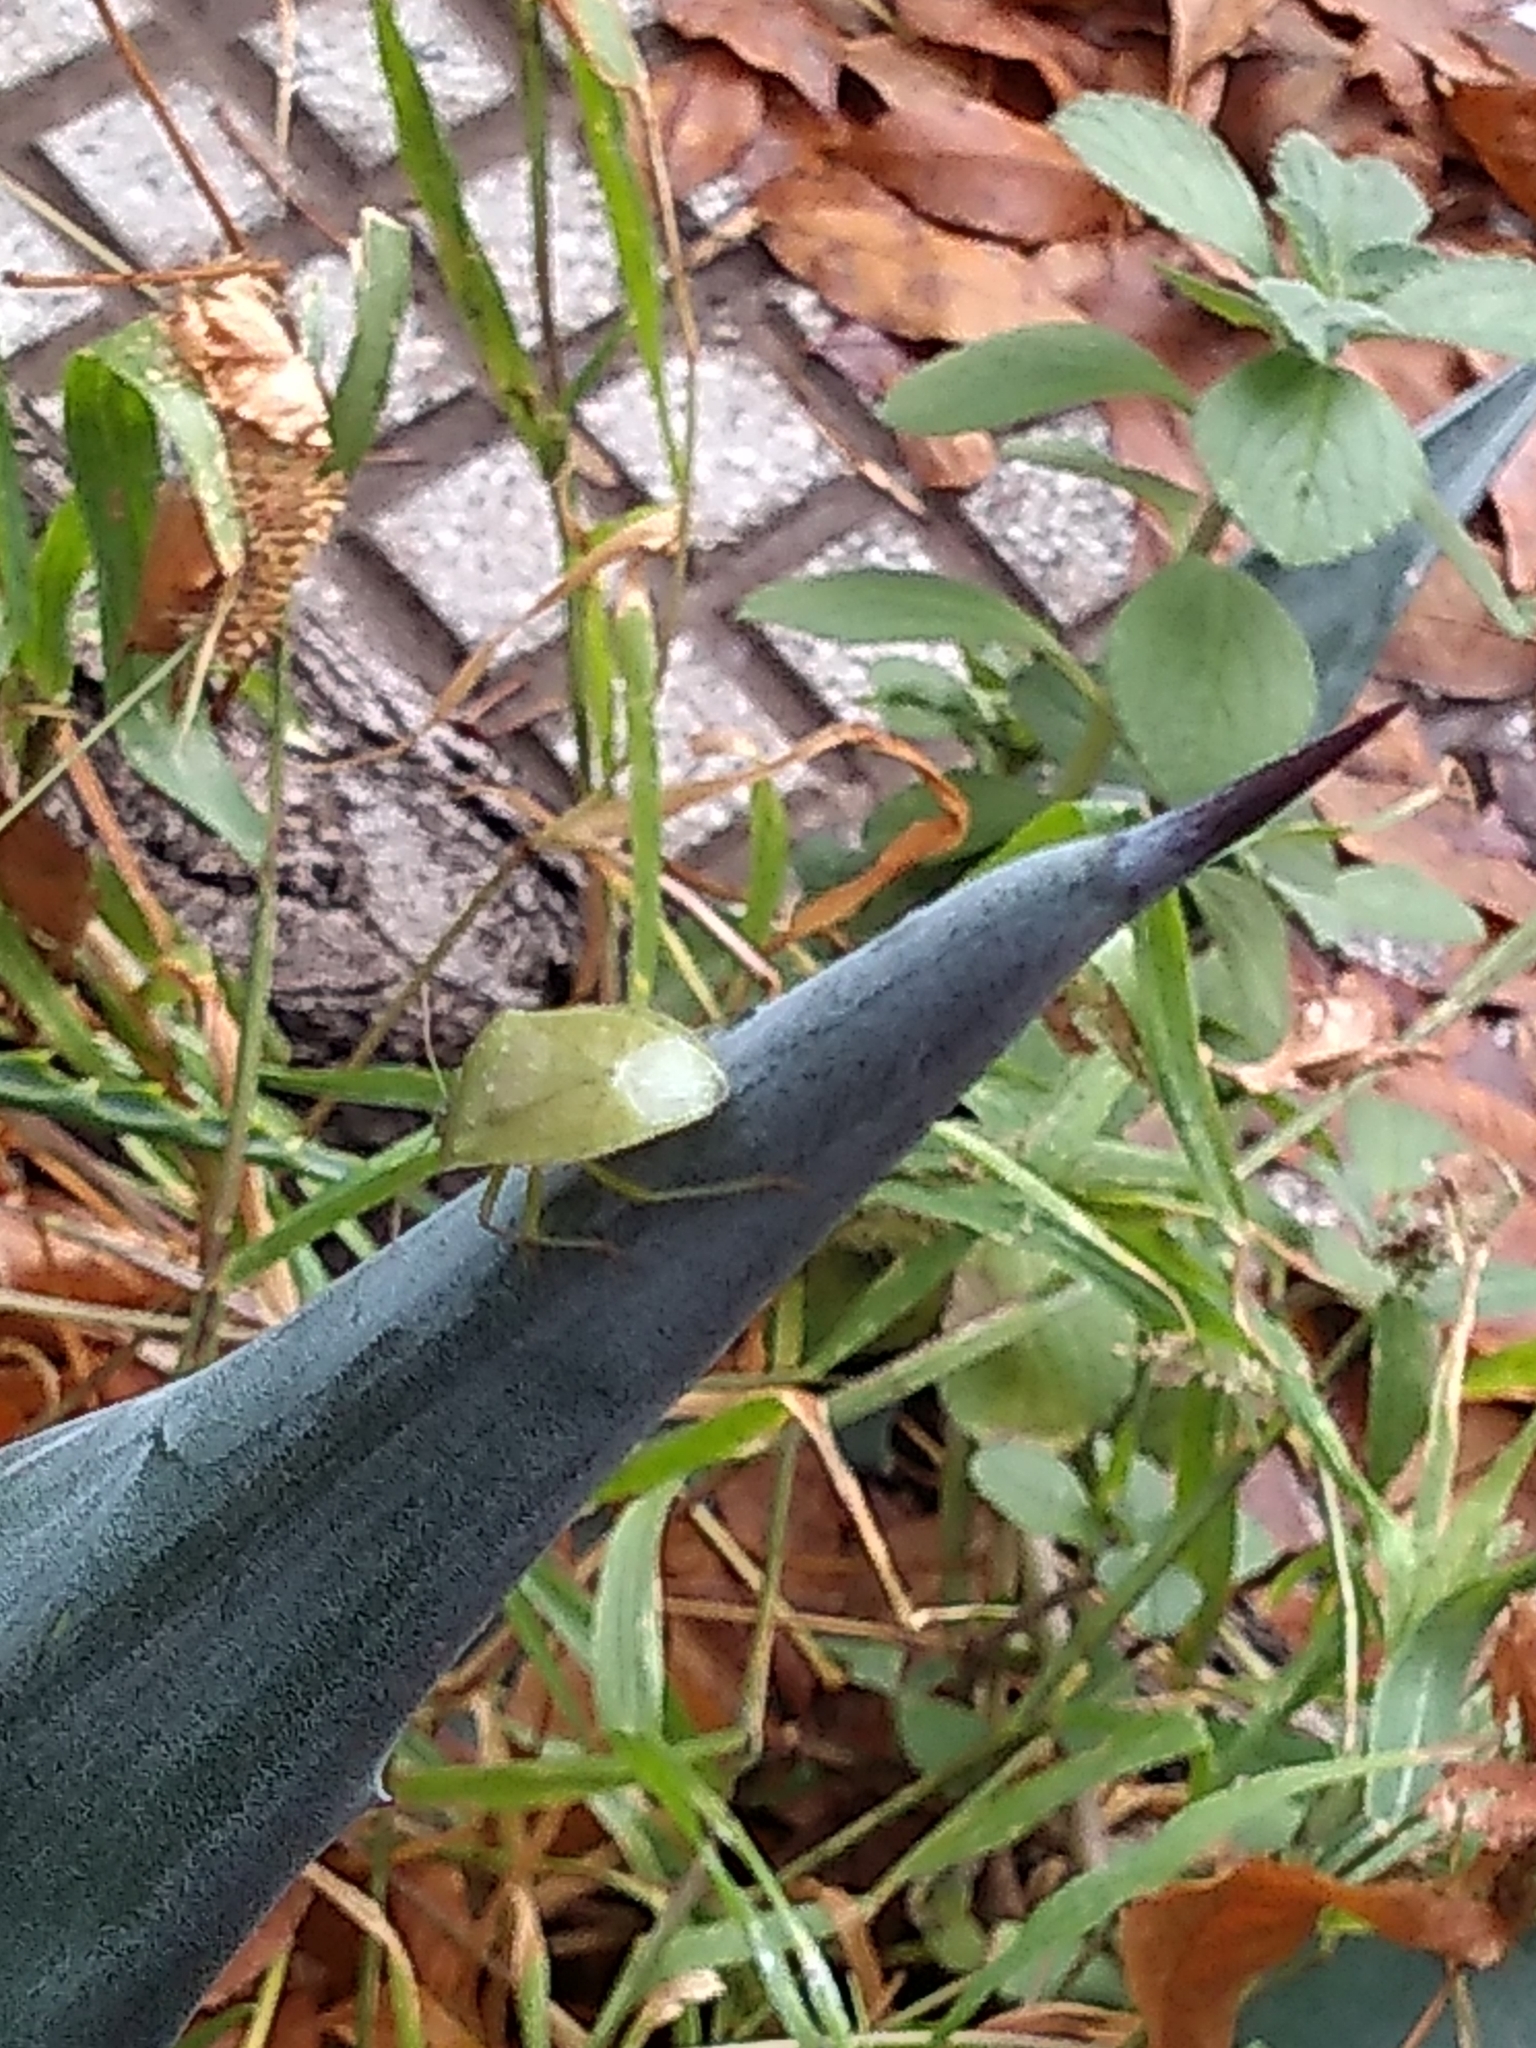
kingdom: Animalia
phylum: Arthropoda
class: Insecta
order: Hemiptera
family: Pentatomidae
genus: Nezara
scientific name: Nezara viridula
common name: Southern green stink bug
